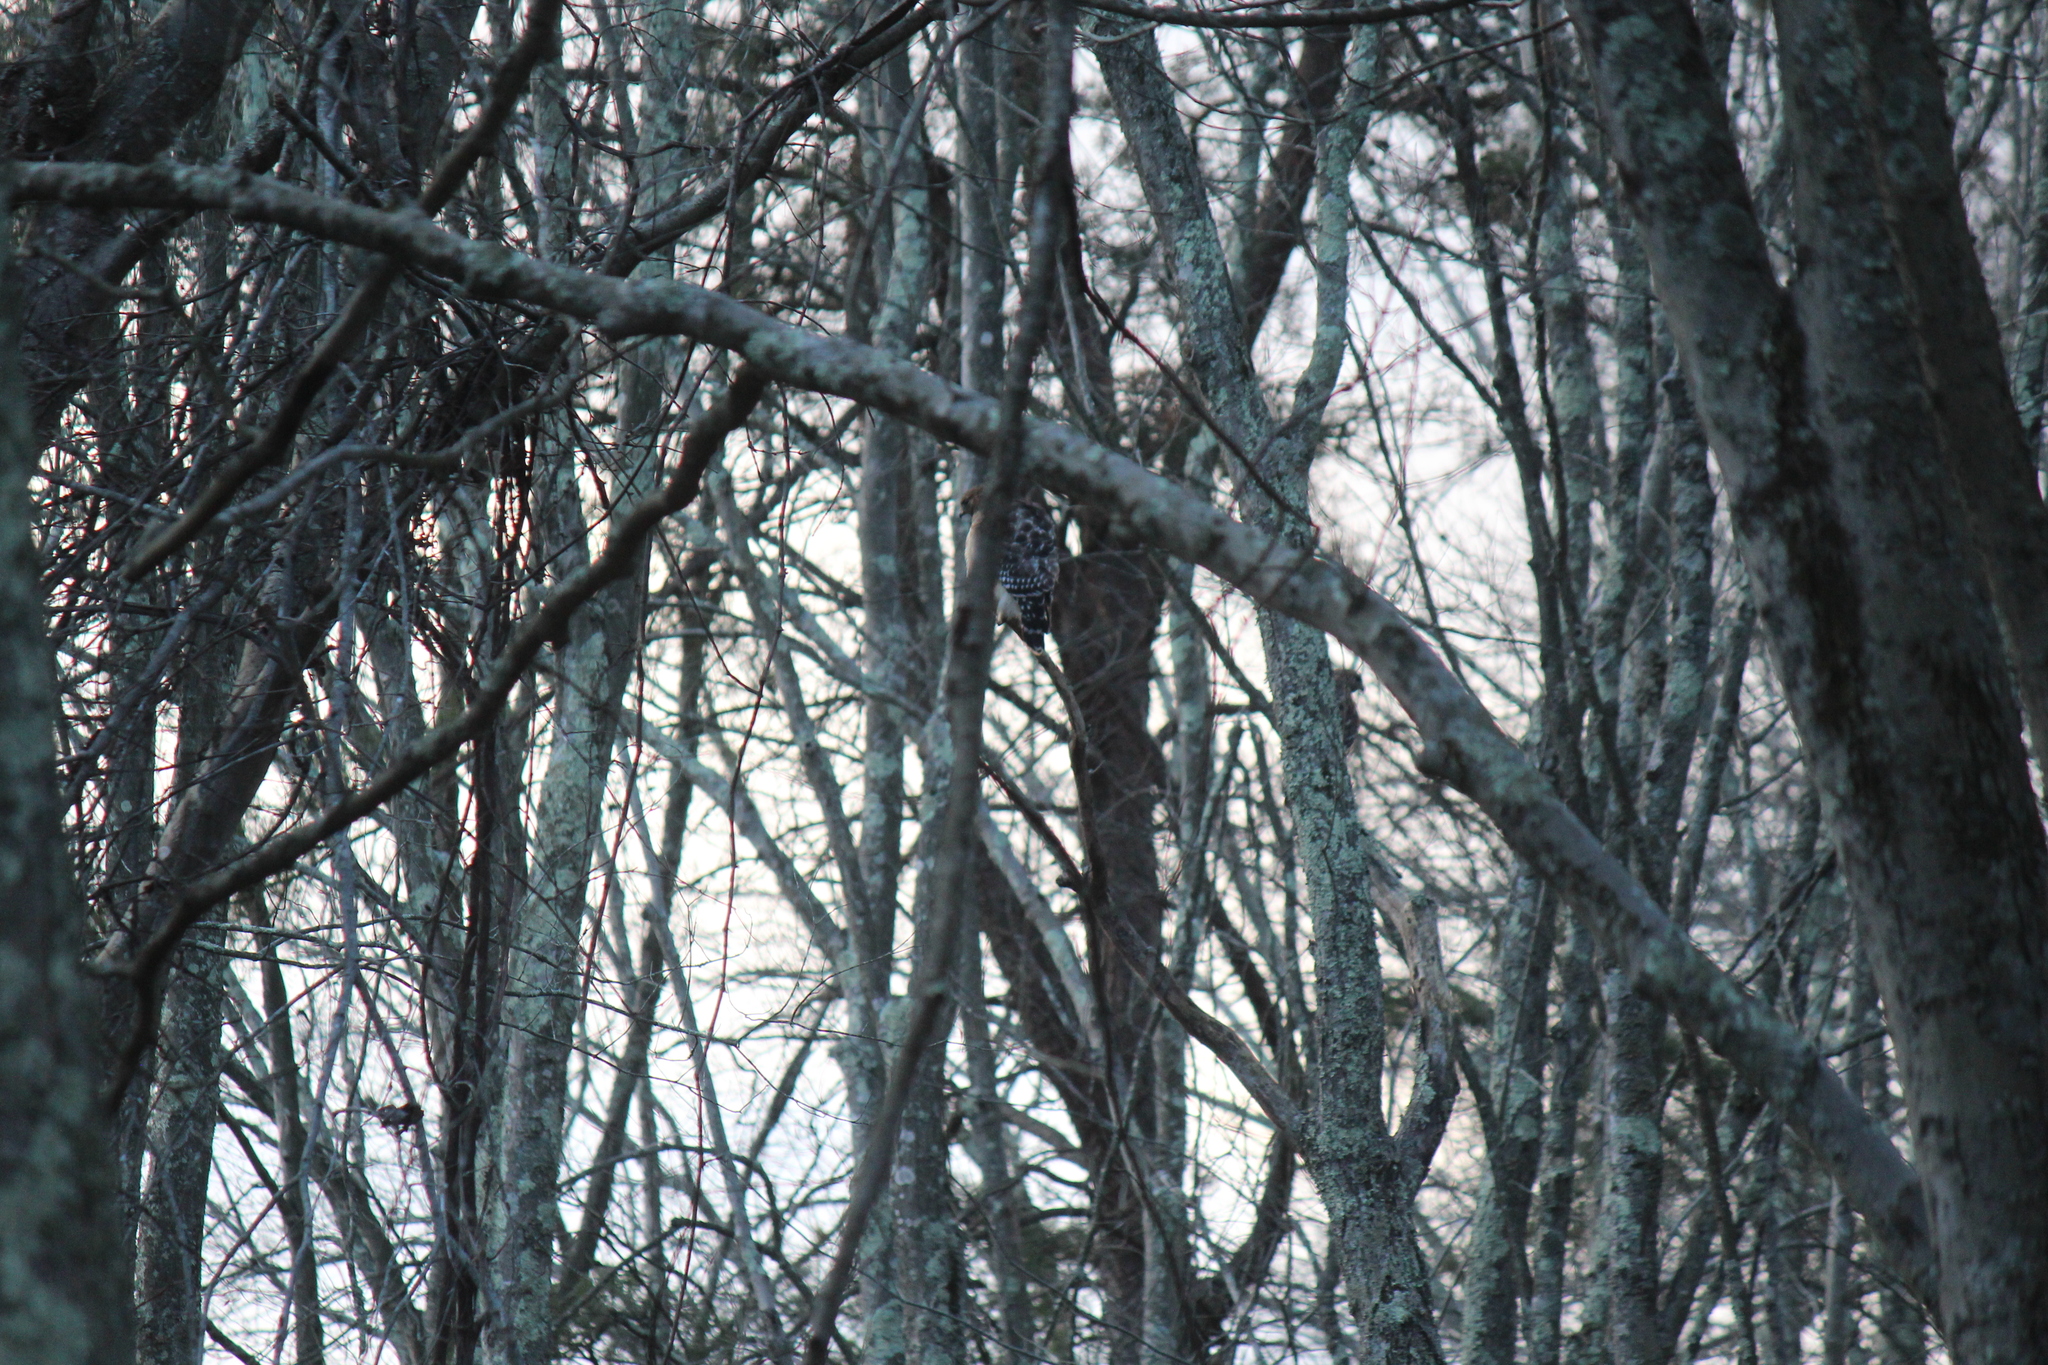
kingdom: Animalia
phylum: Chordata
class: Aves
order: Accipitriformes
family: Accipitridae
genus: Buteo
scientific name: Buteo lineatus
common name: Red-shouldered hawk
